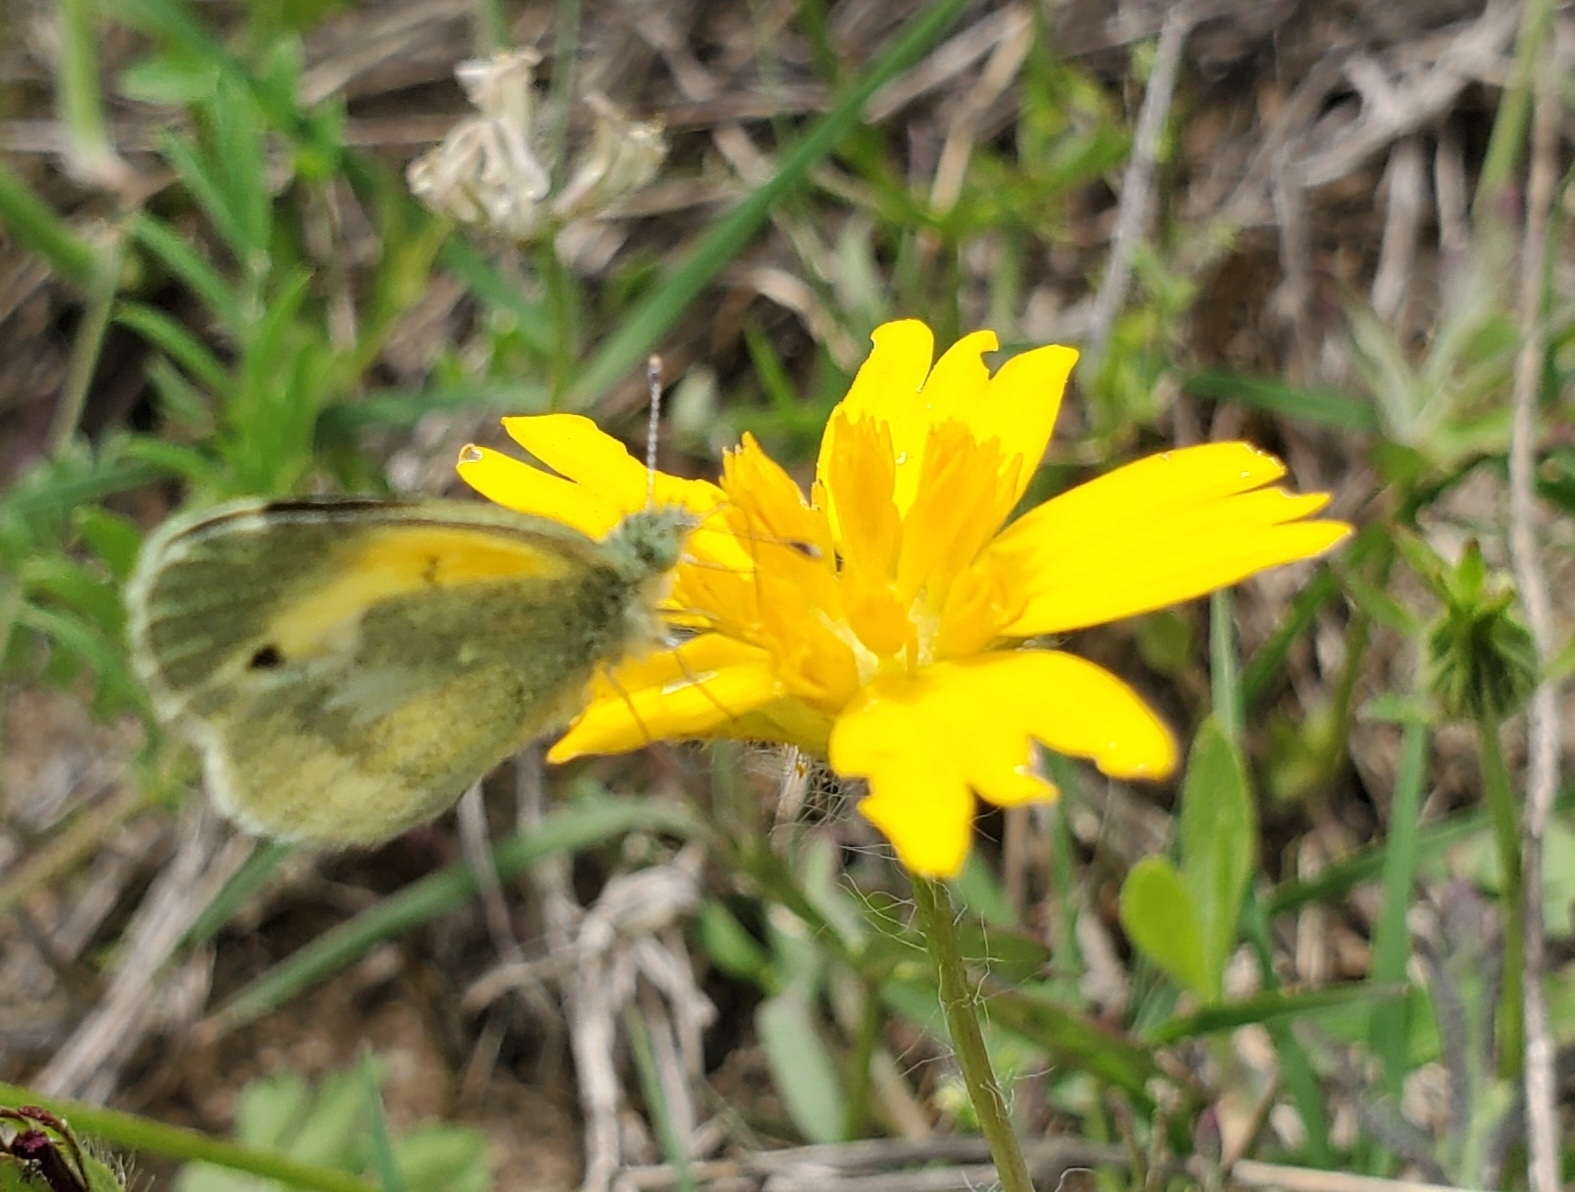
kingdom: Animalia
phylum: Arthropoda
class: Insecta
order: Lepidoptera
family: Pieridae
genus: Nathalis
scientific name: Nathalis iole
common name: Dainty sulphur
